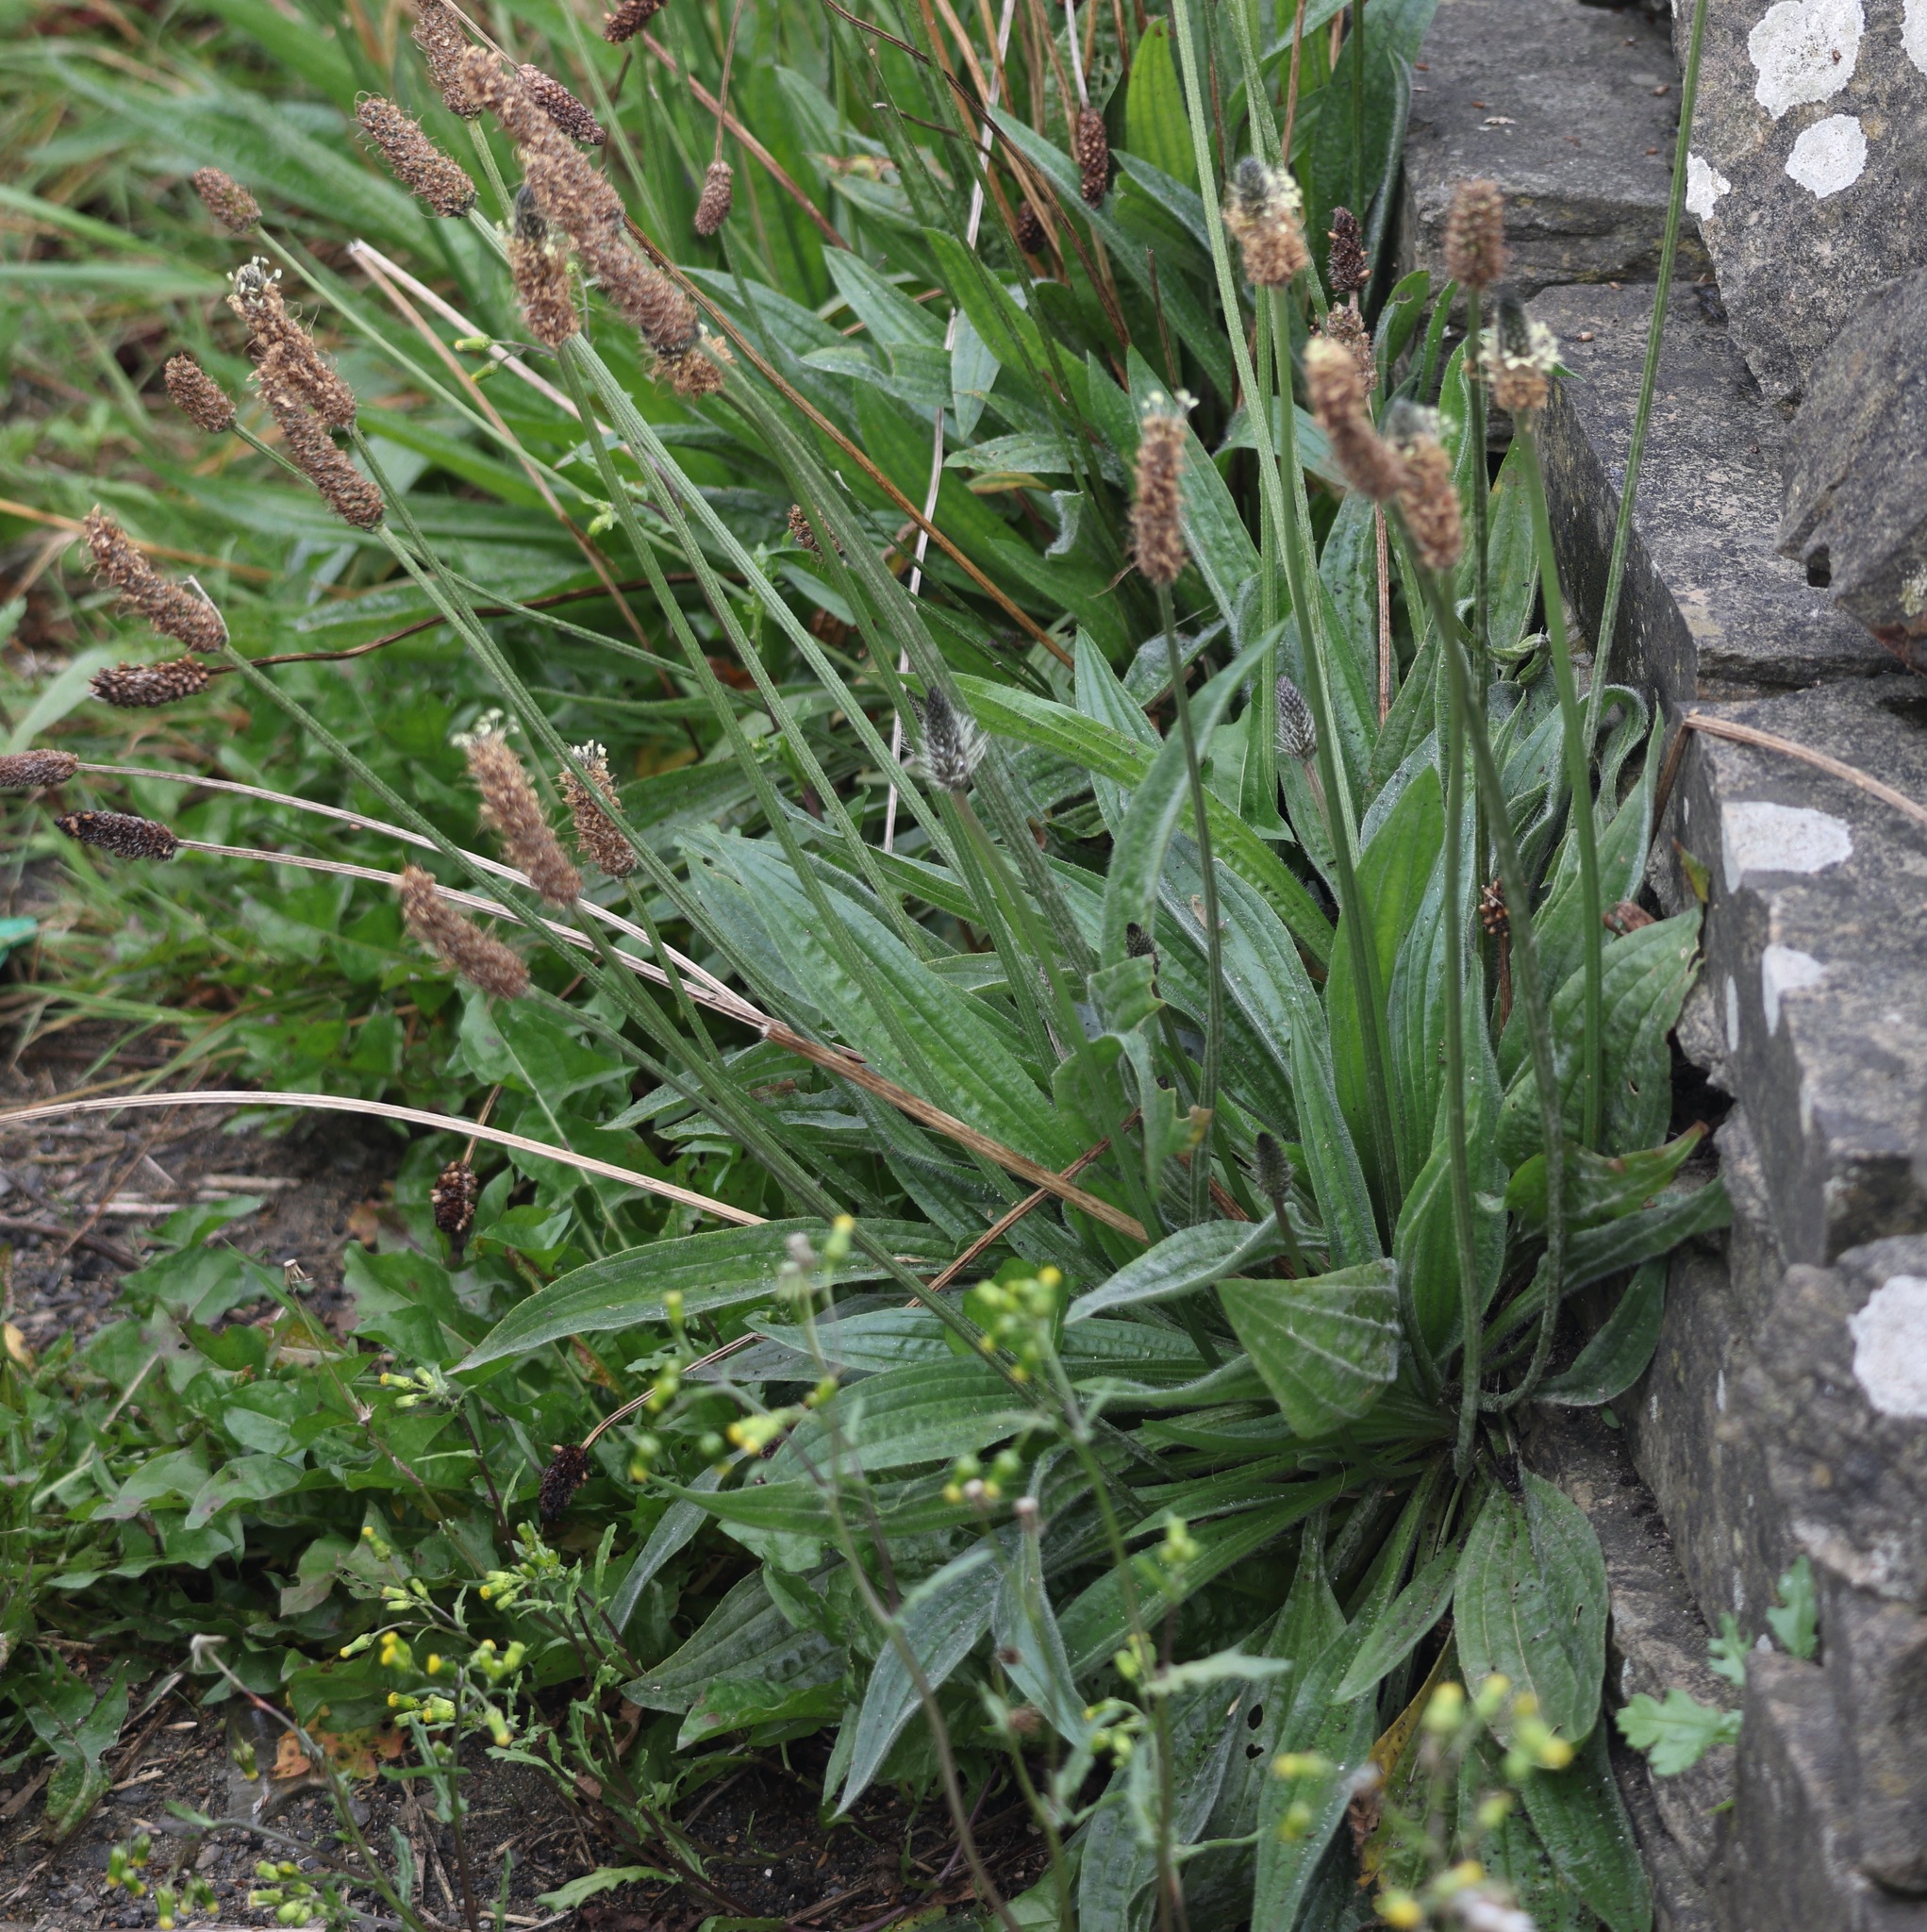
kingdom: Plantae
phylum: Tracheophyta
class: Magnoliopsida
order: Lamiales
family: Plantaginaceae
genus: Plantago
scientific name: Plantago lanceolata
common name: Ribwort plantain
